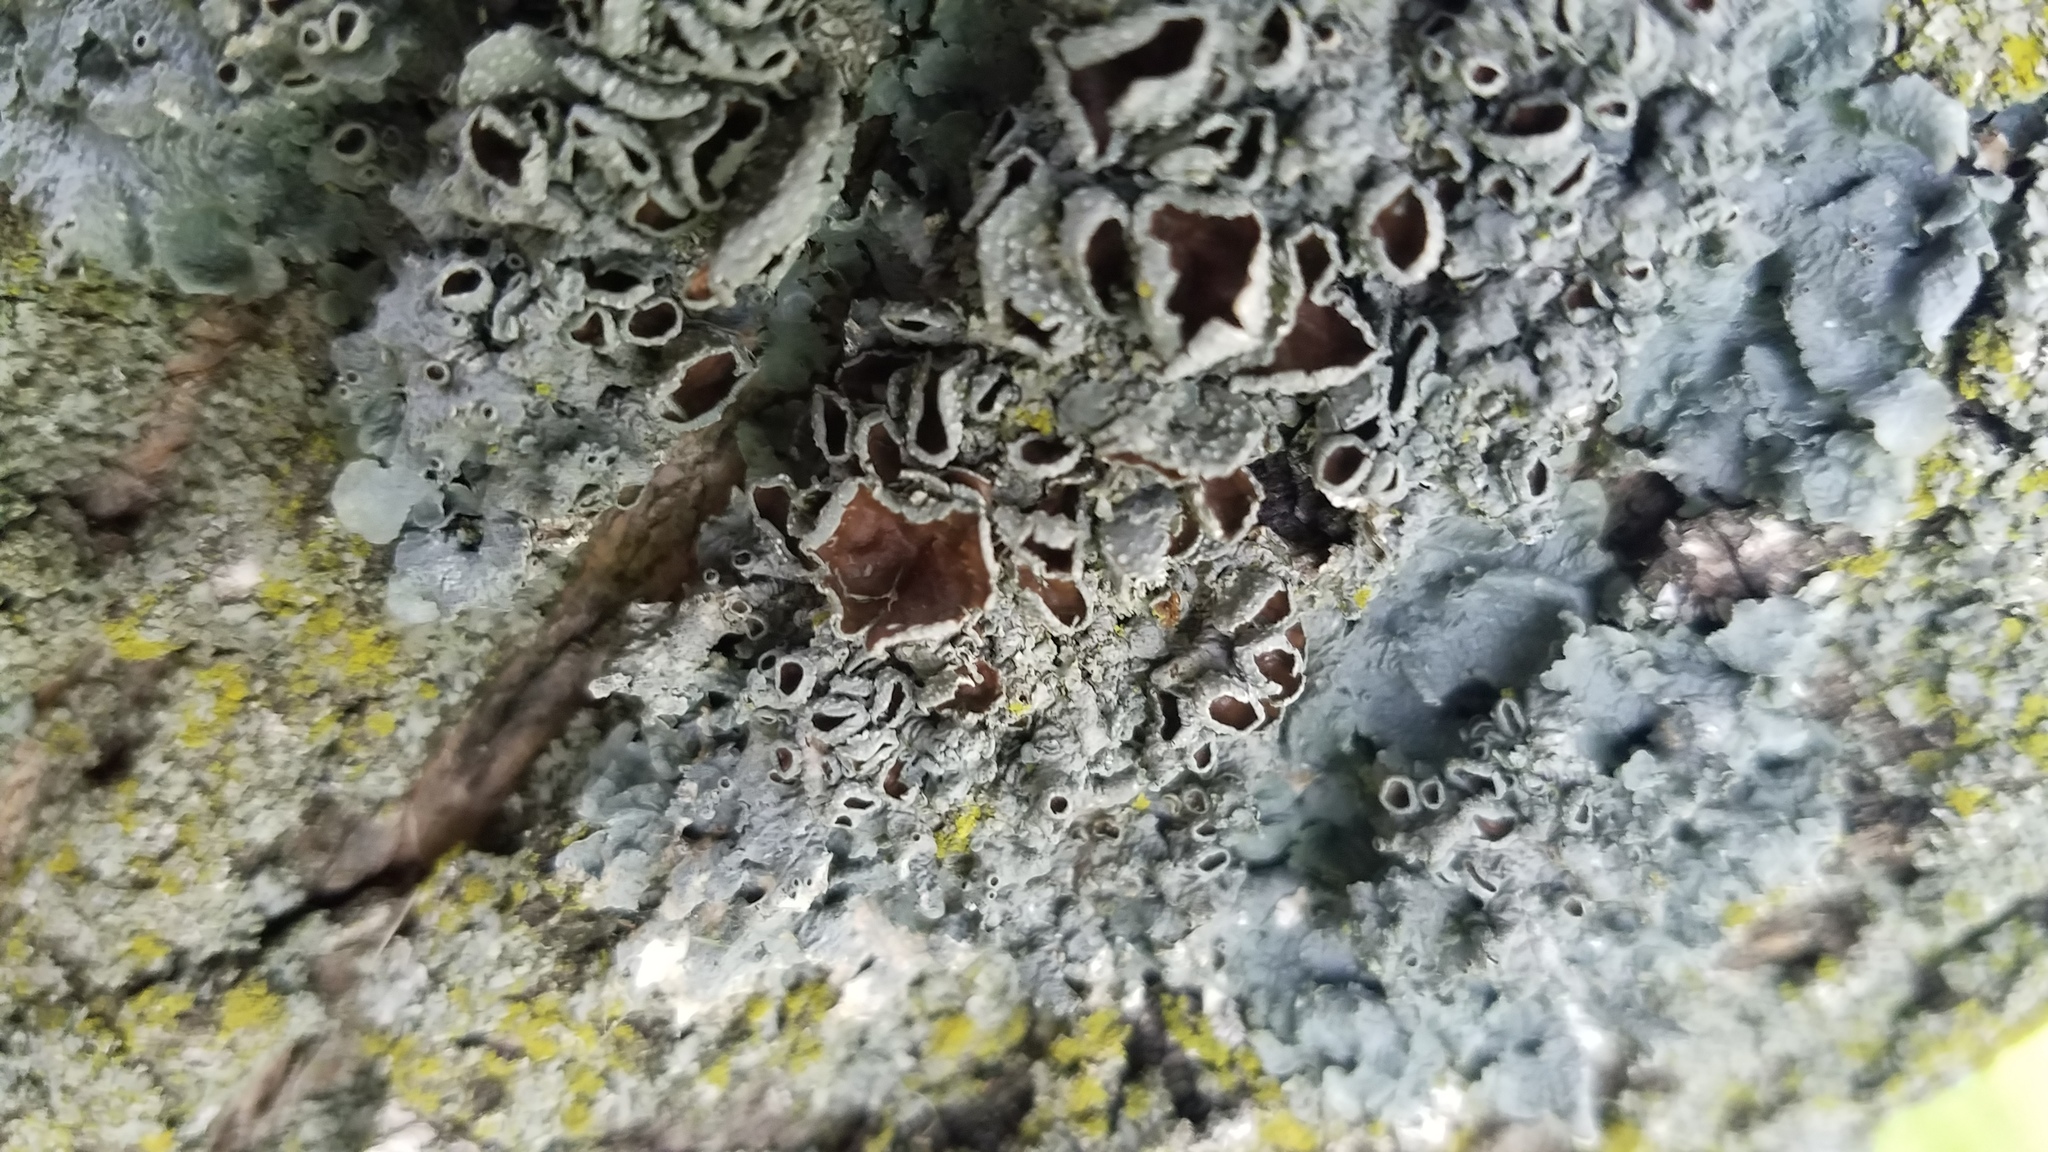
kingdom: Fungi
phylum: Ascomycota
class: Lecanoromycetes
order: Lecanorales
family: Parmeliaceae
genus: Punctelia
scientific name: Punctelia bolliana
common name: Eastern speckled shield lichen
